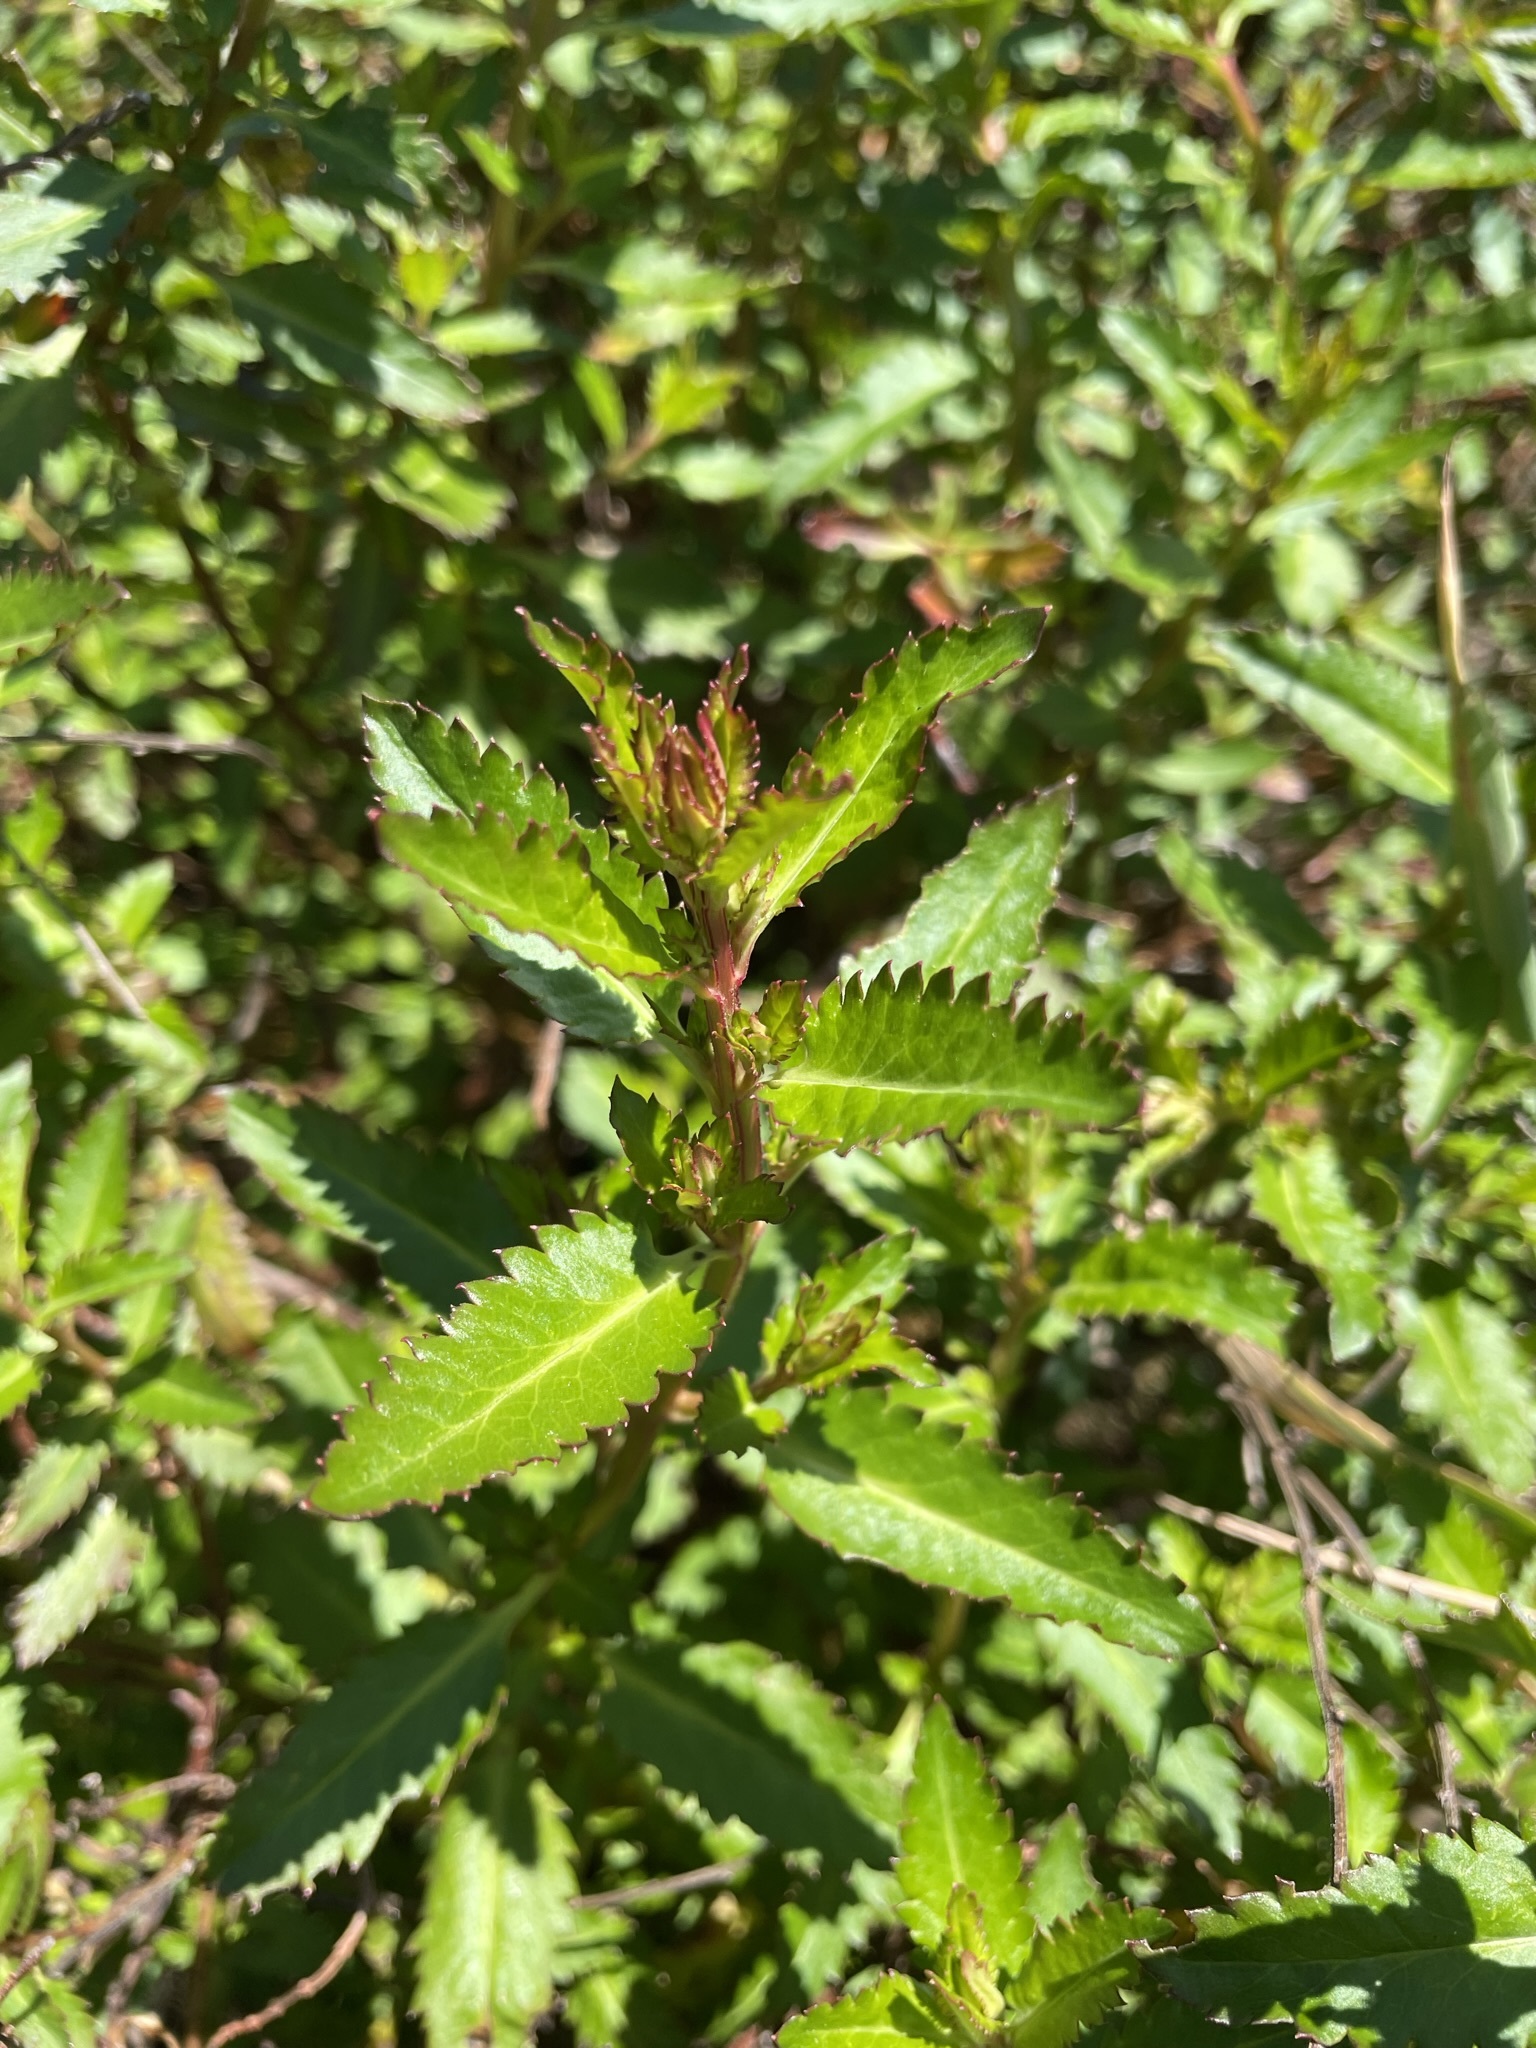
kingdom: Plantae
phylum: Tracheophyta
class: Magnoliopsida
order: Saxifragales
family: Haloragaceae
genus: Haloragis
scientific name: Haloragis erecta
